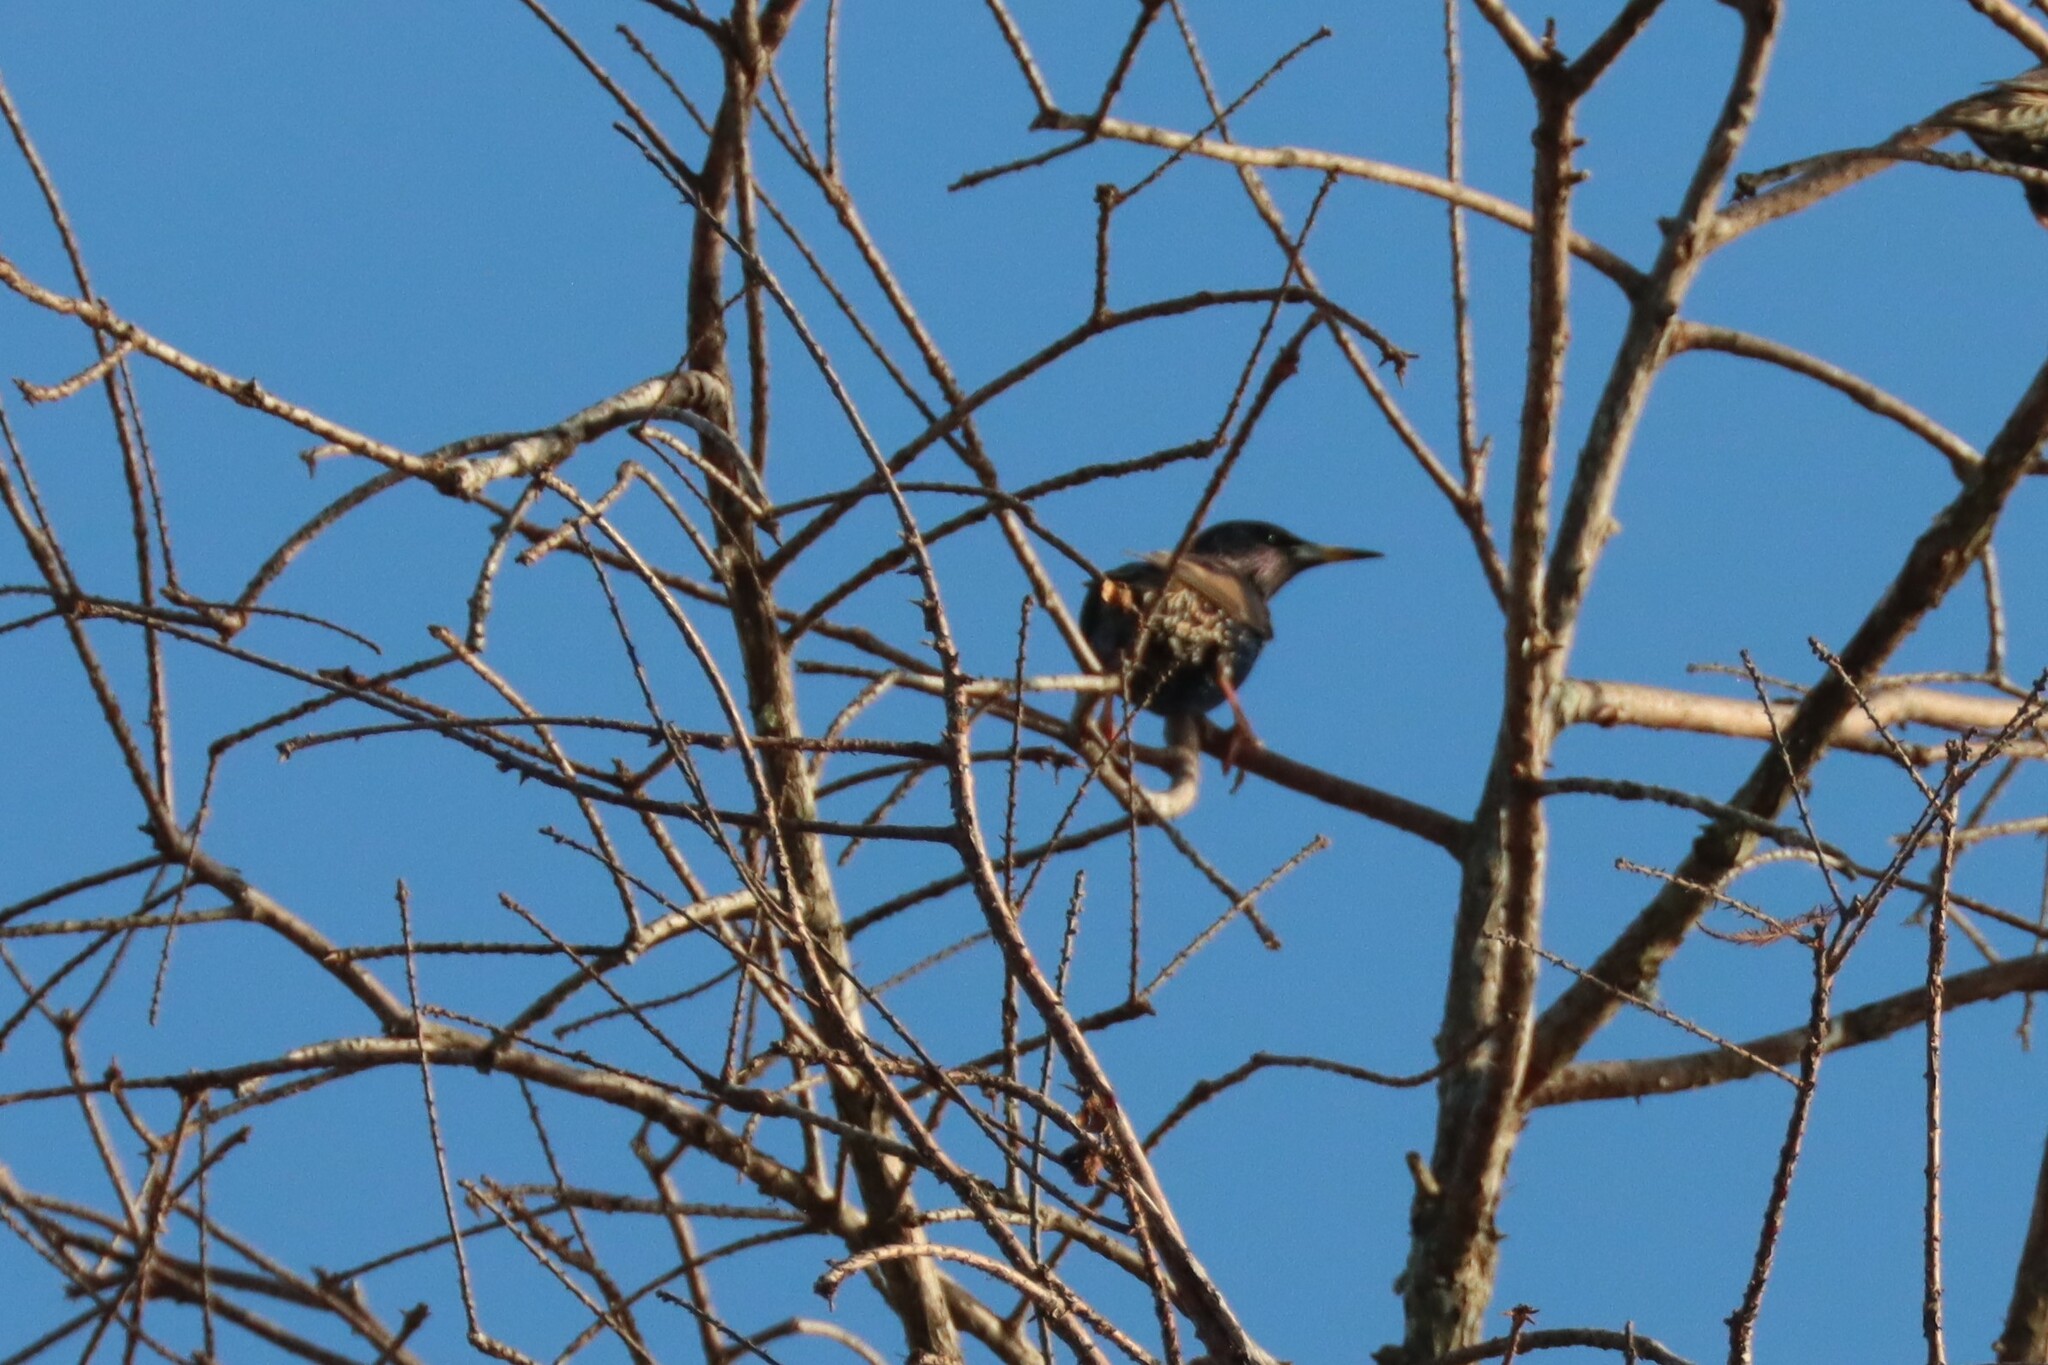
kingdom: Animalia
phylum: Chordata
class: Aves
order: Passeriformes
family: Sturnidae
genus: Sturnus
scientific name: Sturnus vulgaris
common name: Common starling
